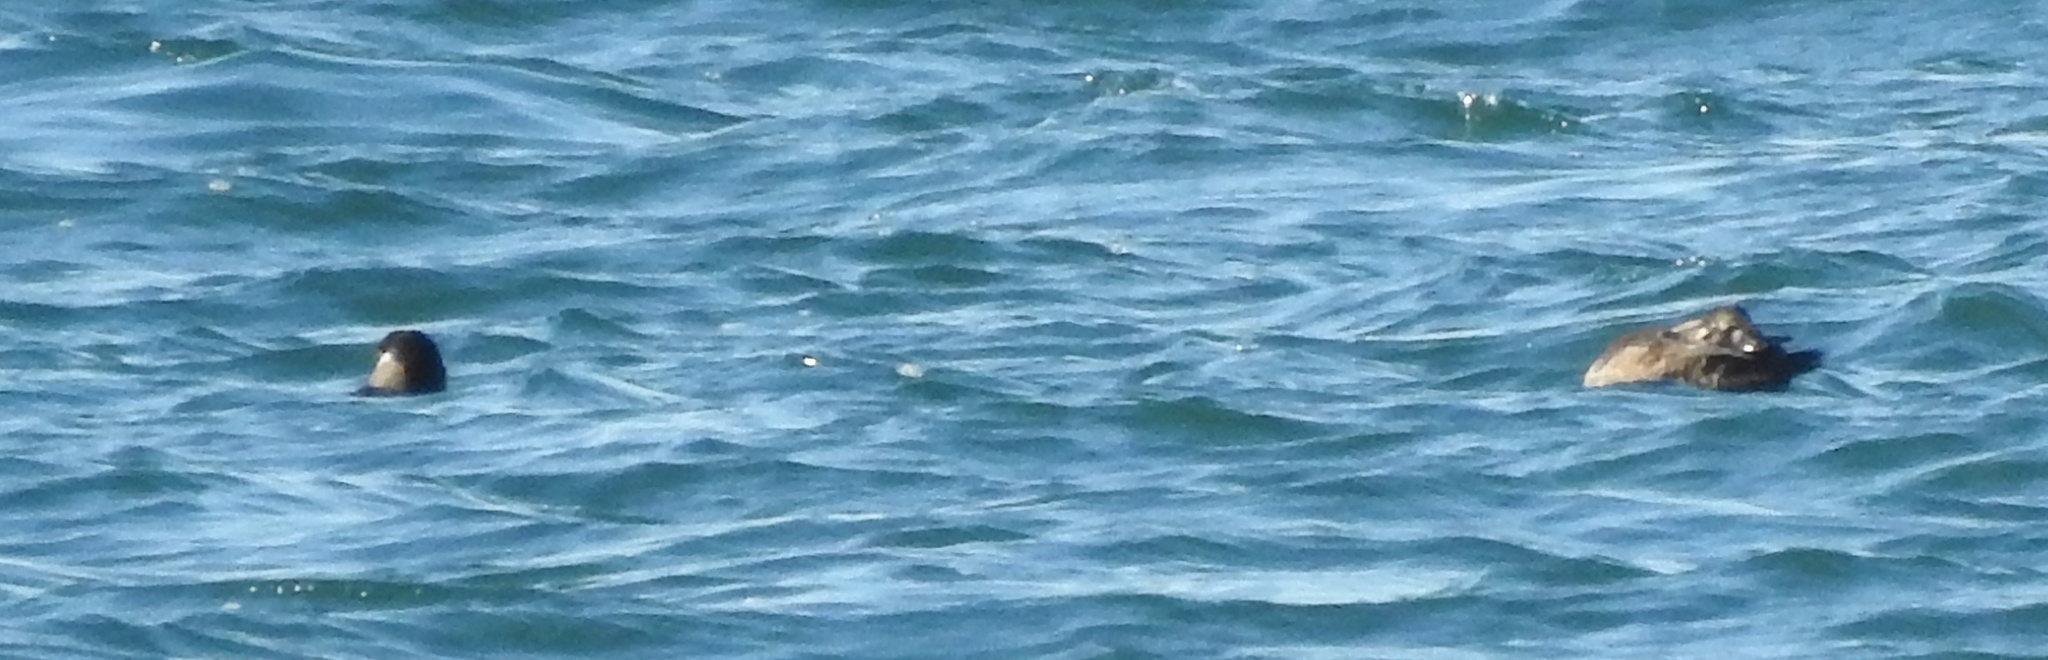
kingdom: Animalia
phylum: Chordata
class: Aves
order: Anseriformes
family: Anatidae
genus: Melanitta
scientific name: Melanitta perspicillata
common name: Surf scoter
